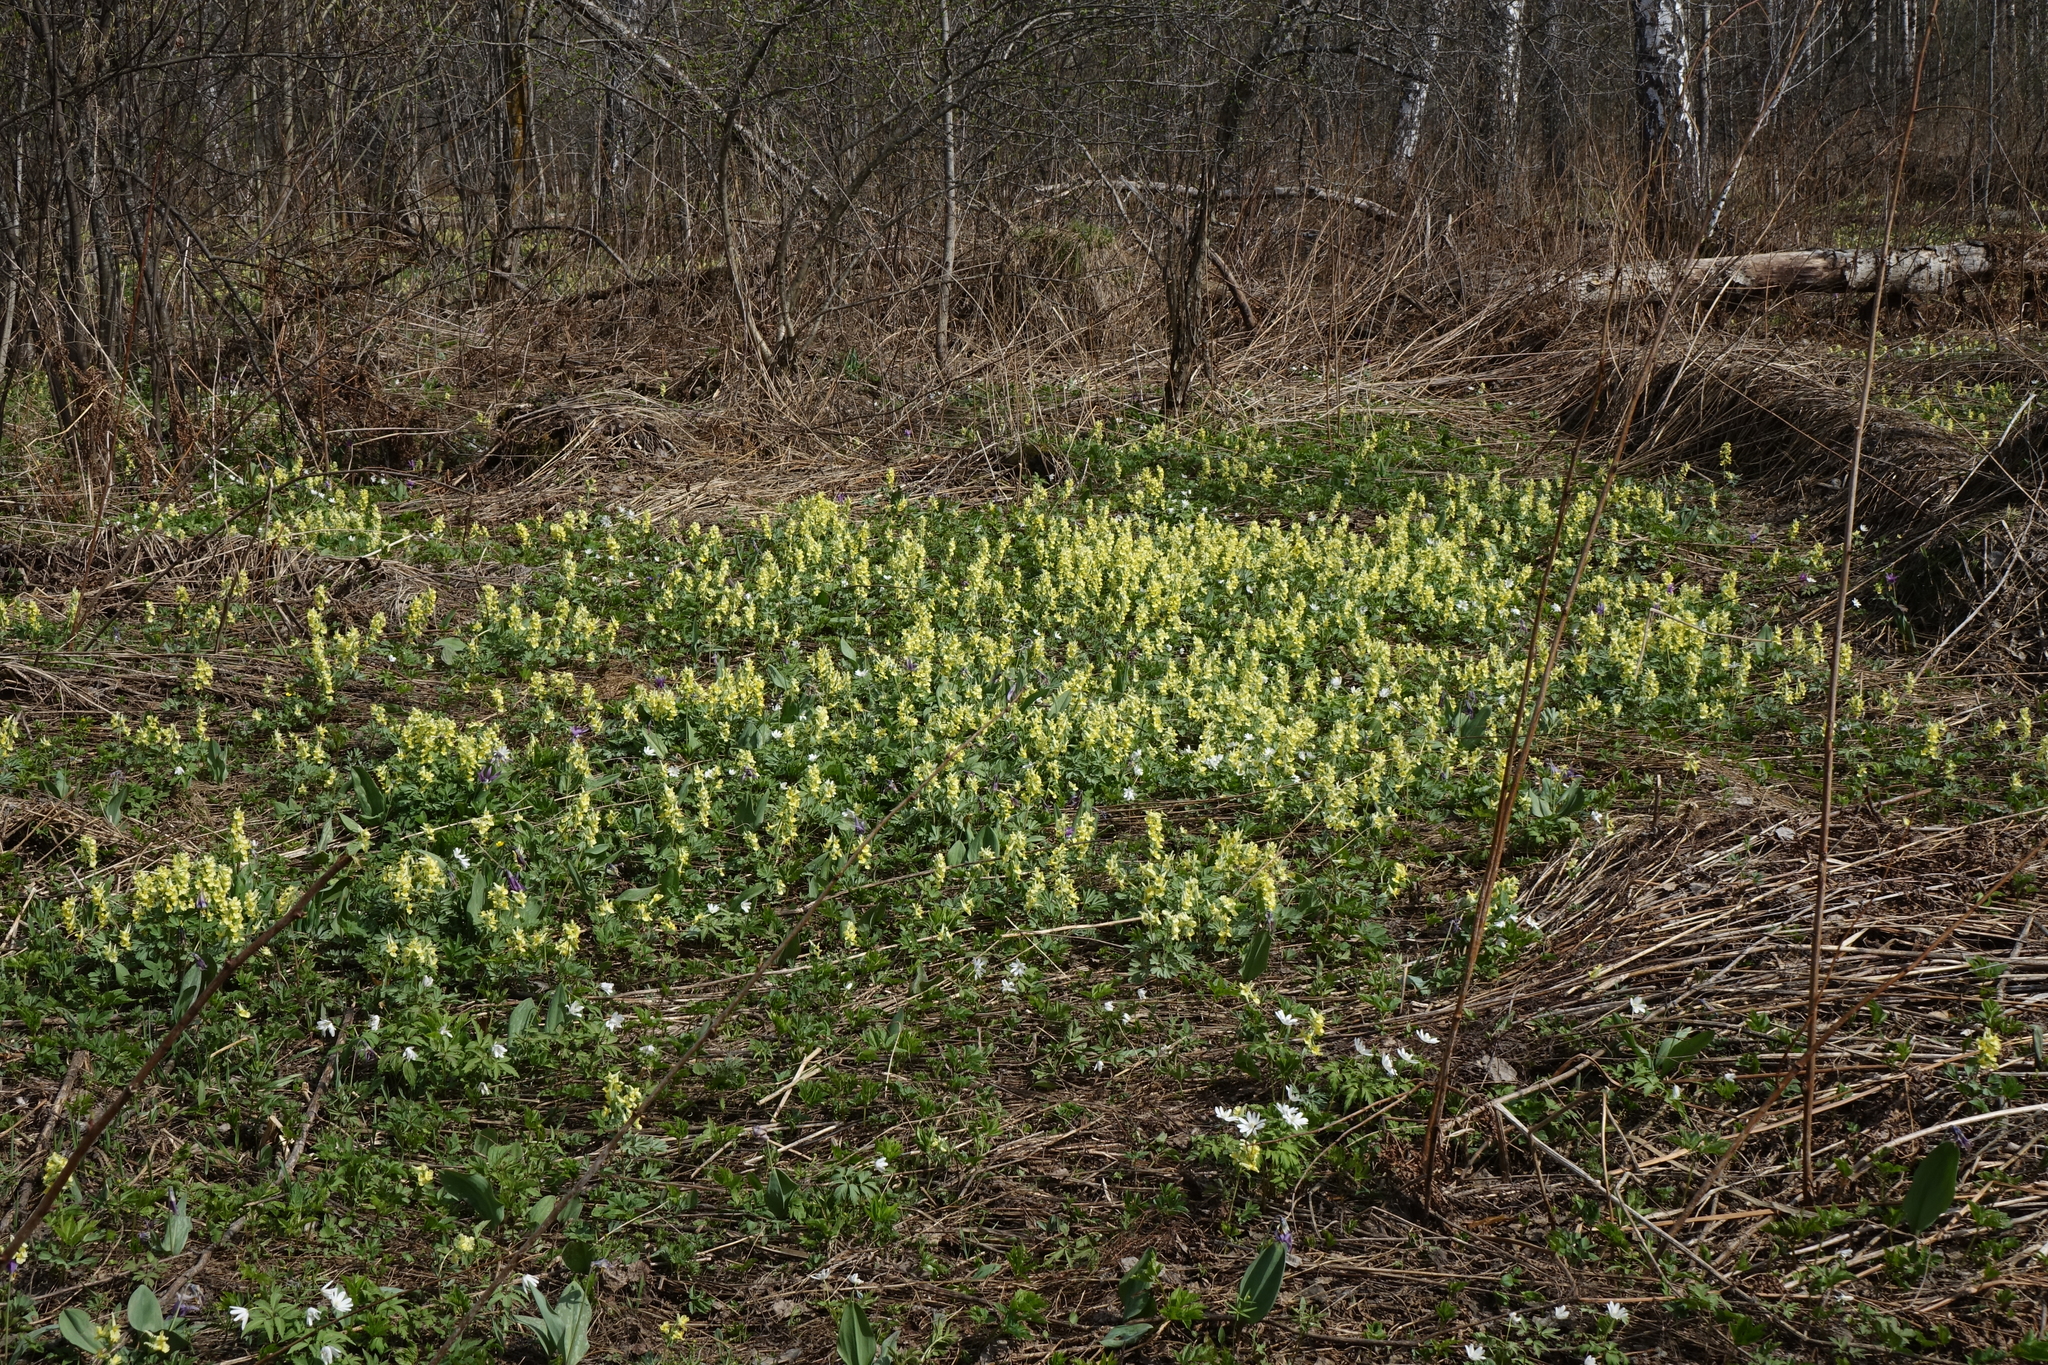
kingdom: Plantae
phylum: Tracheophyta
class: Magnoliopsida
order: Ranunculales
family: Papaveraceae
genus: Corydalis
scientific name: Corydalis bracteata
